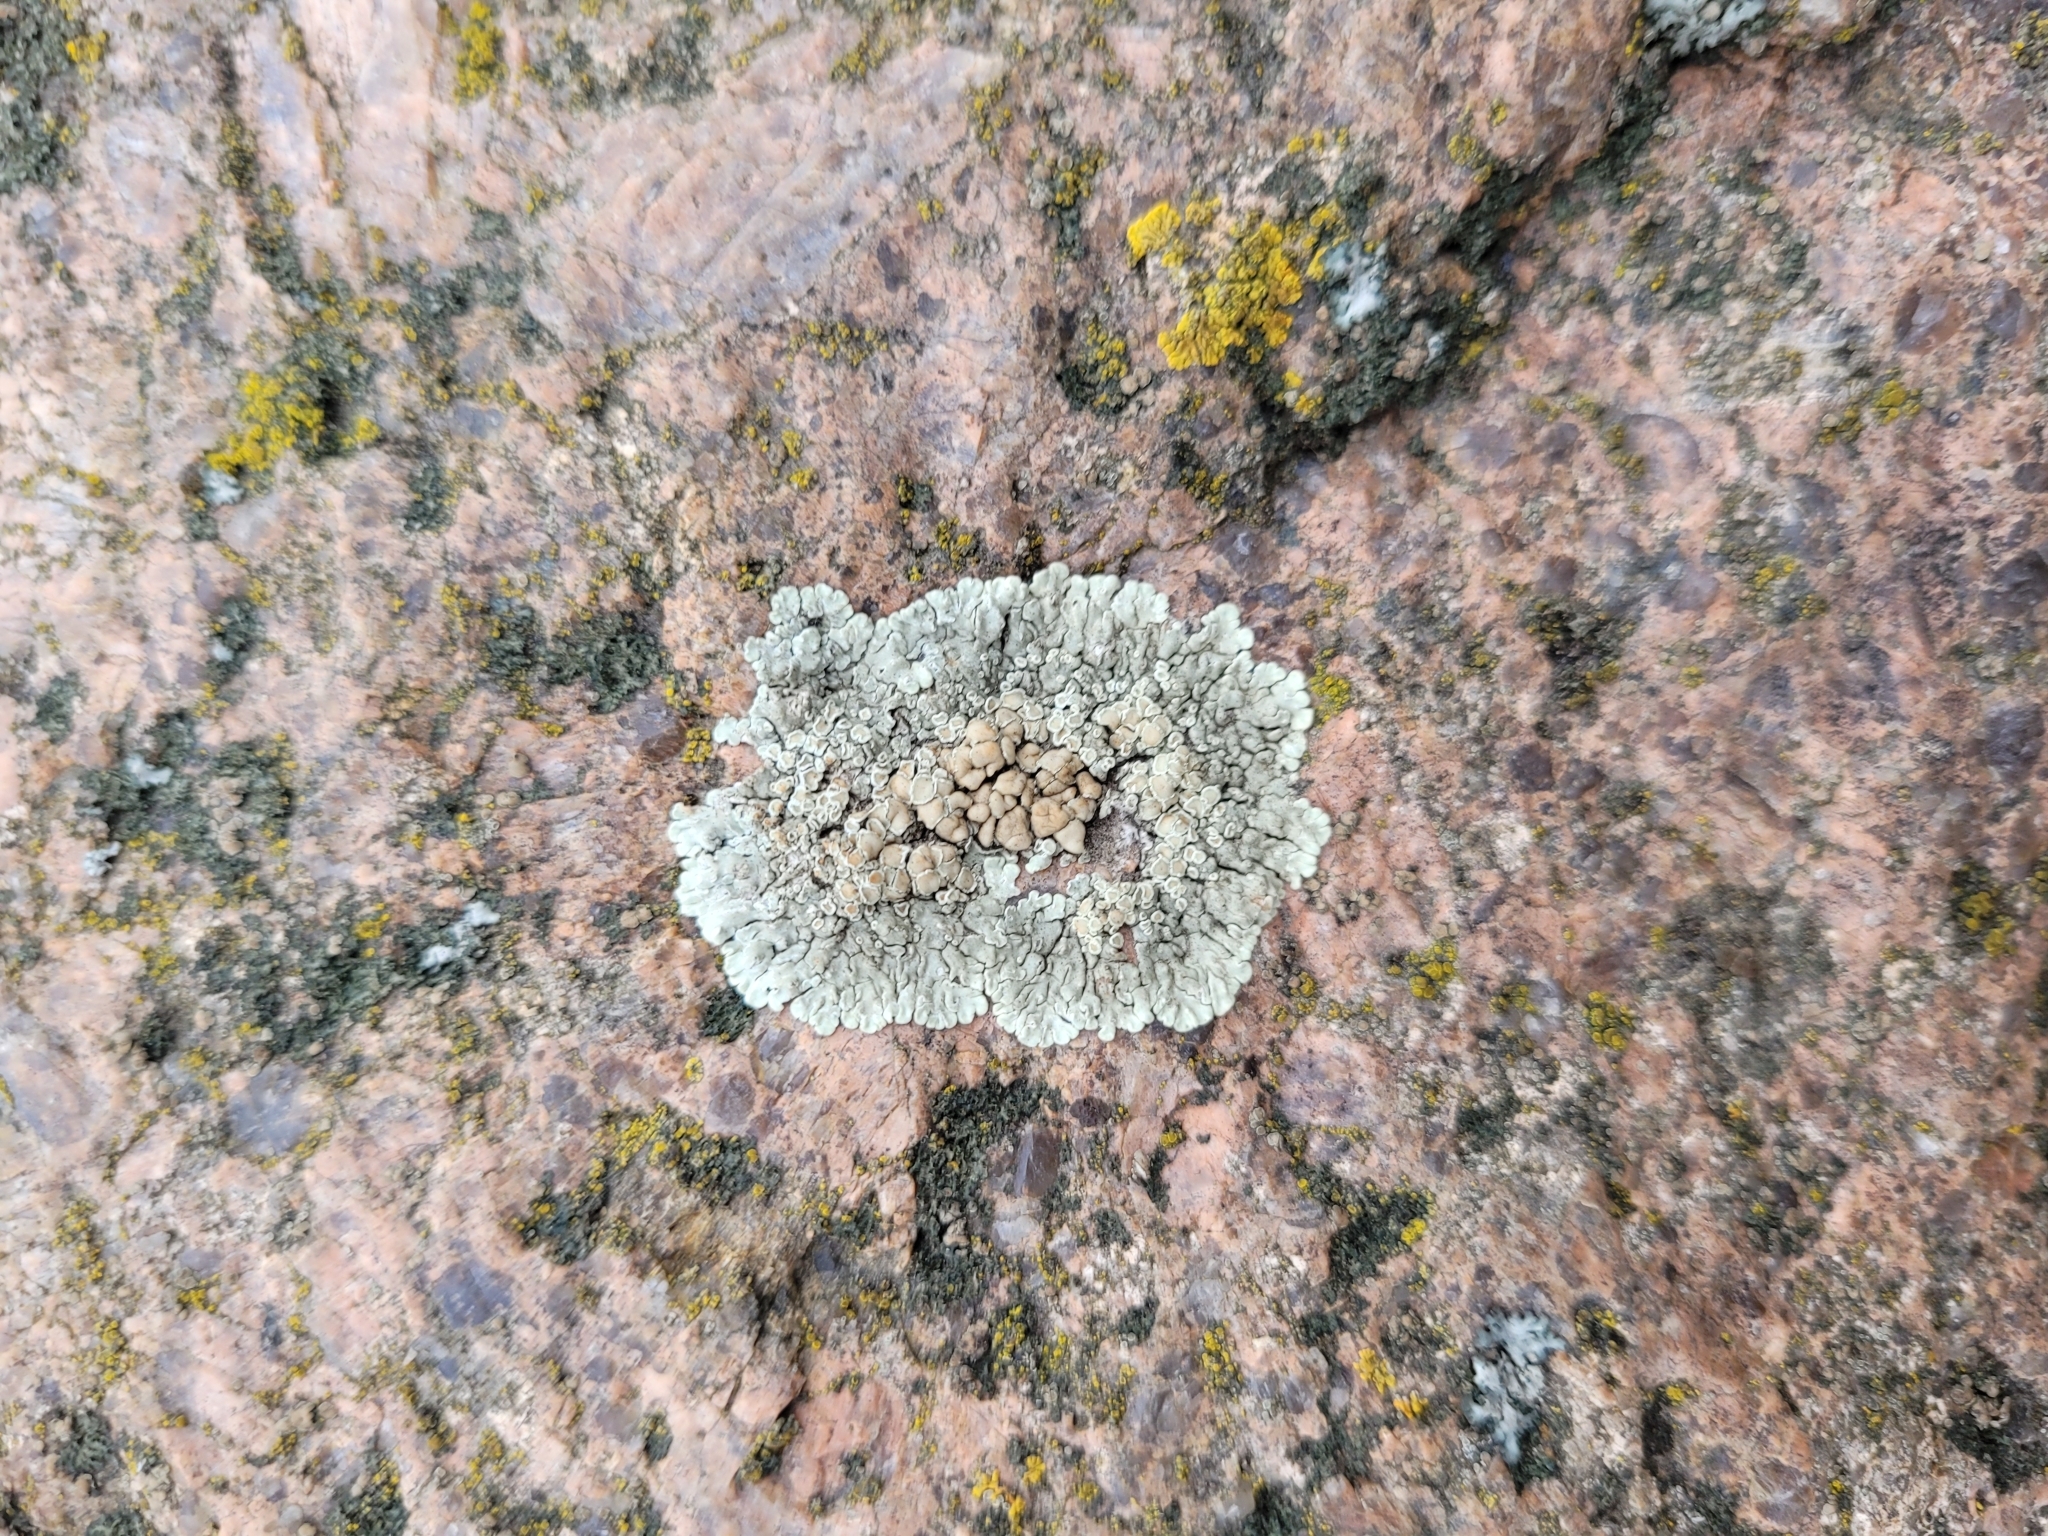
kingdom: Fungi
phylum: Ascomycota
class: Lecanoromycetes
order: Lecanorales
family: Lecanoraceae
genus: Protoparmeliopsis
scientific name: Protoparmeliopsis muralis
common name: Stonewall rim lichen
